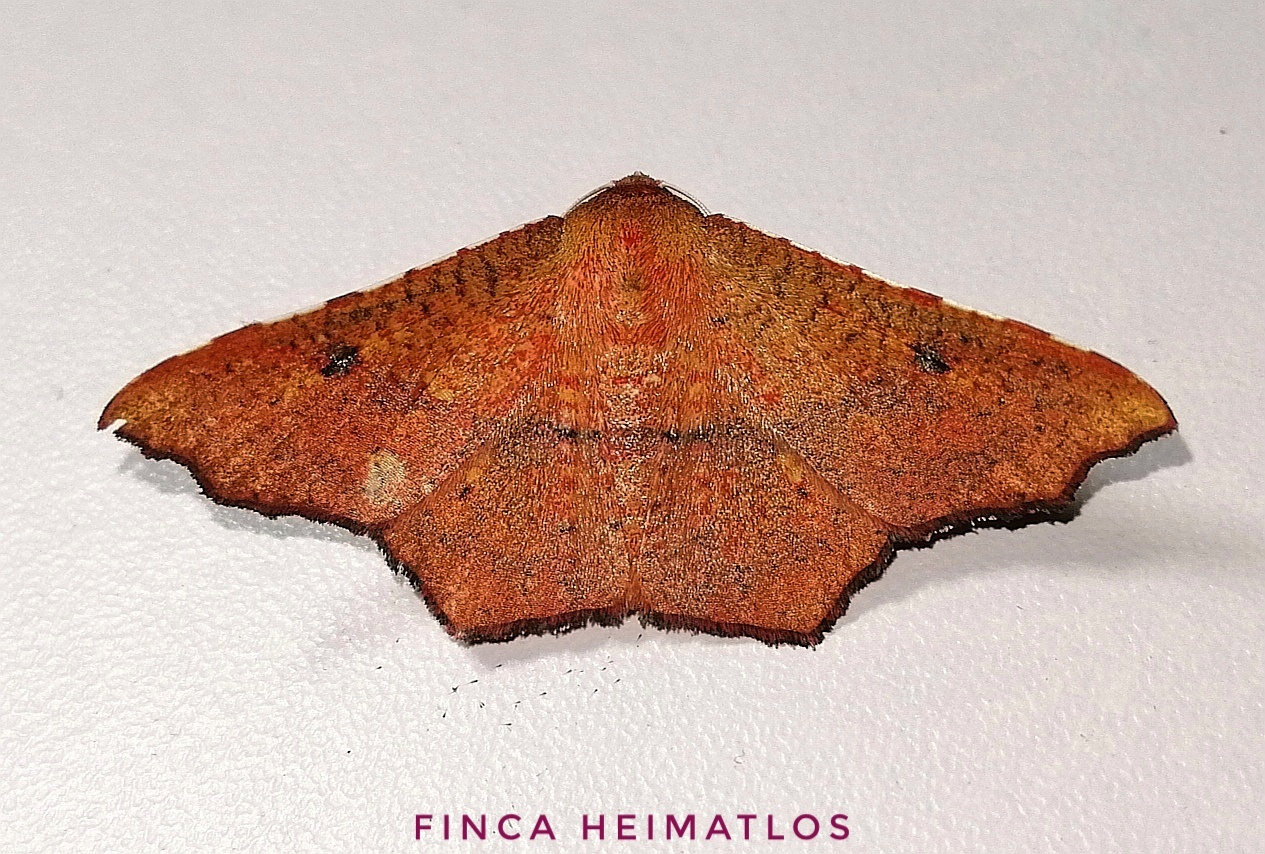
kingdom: Animalia
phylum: Arthropoda
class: Insecta
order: Lepidoptera
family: Thyrididae
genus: Rhodogonia
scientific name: Rhodogonia miniata
